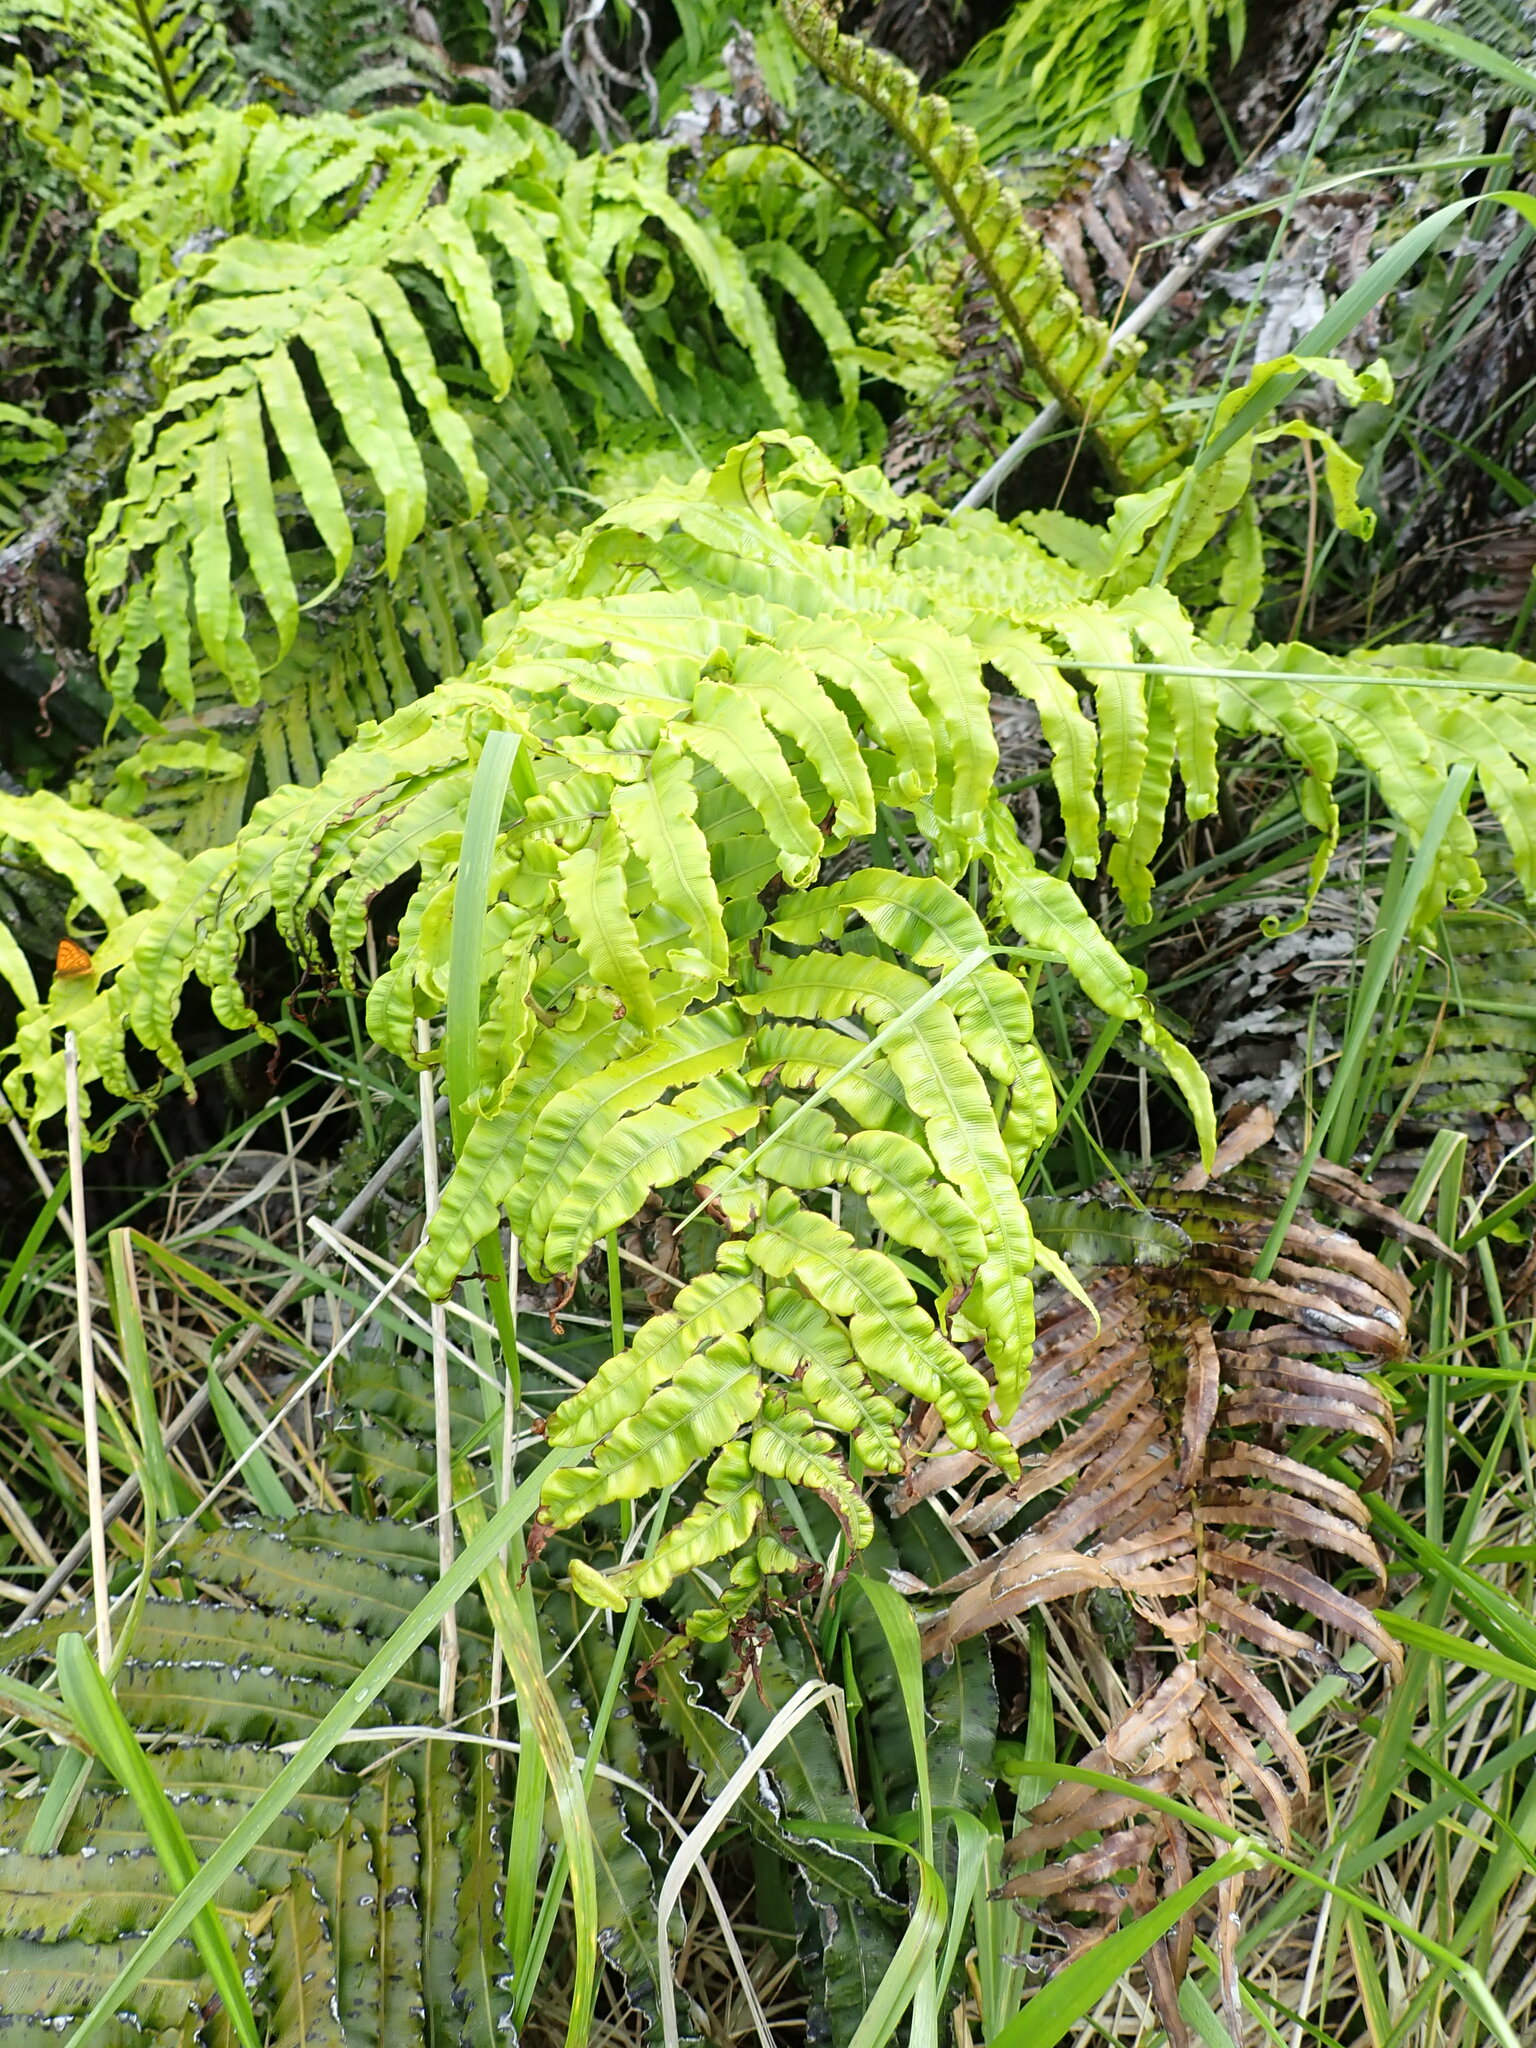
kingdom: Plantae
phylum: Tracheophyta
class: Polypodiopsida
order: Polypodiales
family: Blechnaceae
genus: Parablechnum
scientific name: Parablechnum novae-zelandiae
